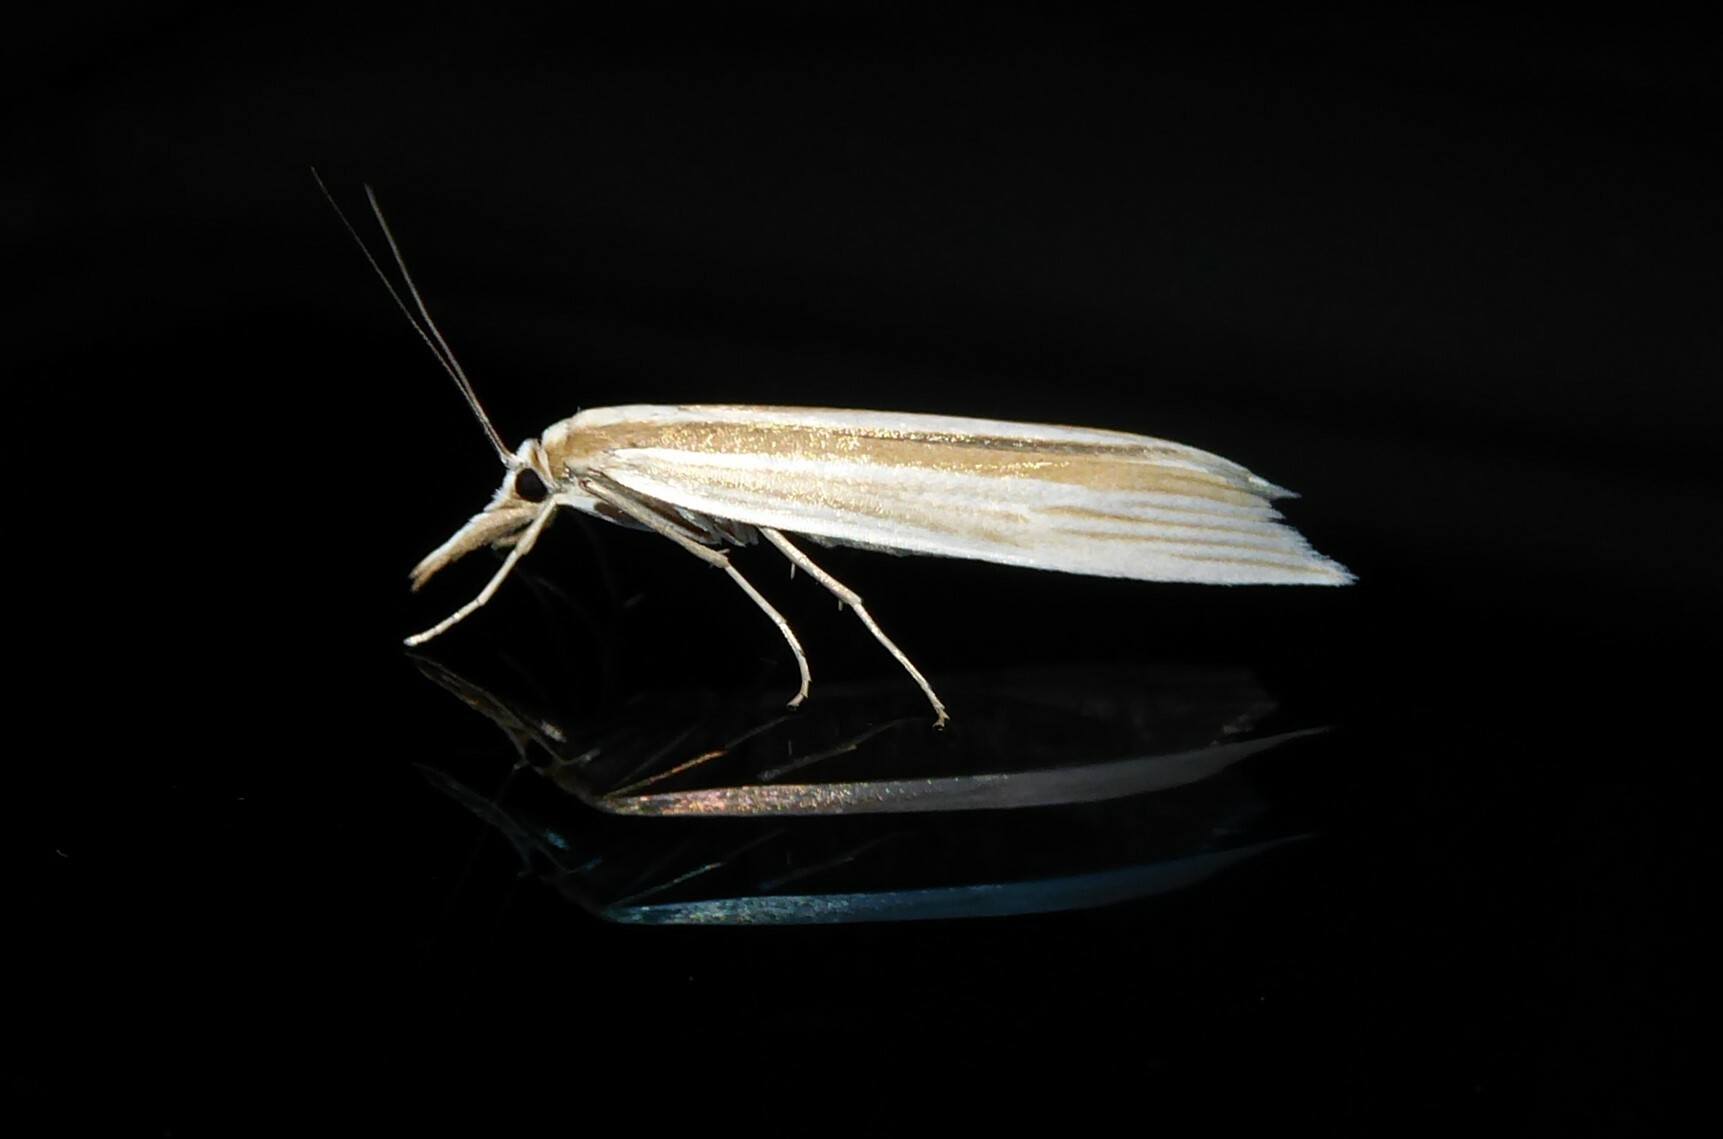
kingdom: Animalia
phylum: Arthropoda
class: Insecta
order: Lepidoptera
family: Crambidae
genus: Orocrambus
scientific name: Orocrambus angustipennis
